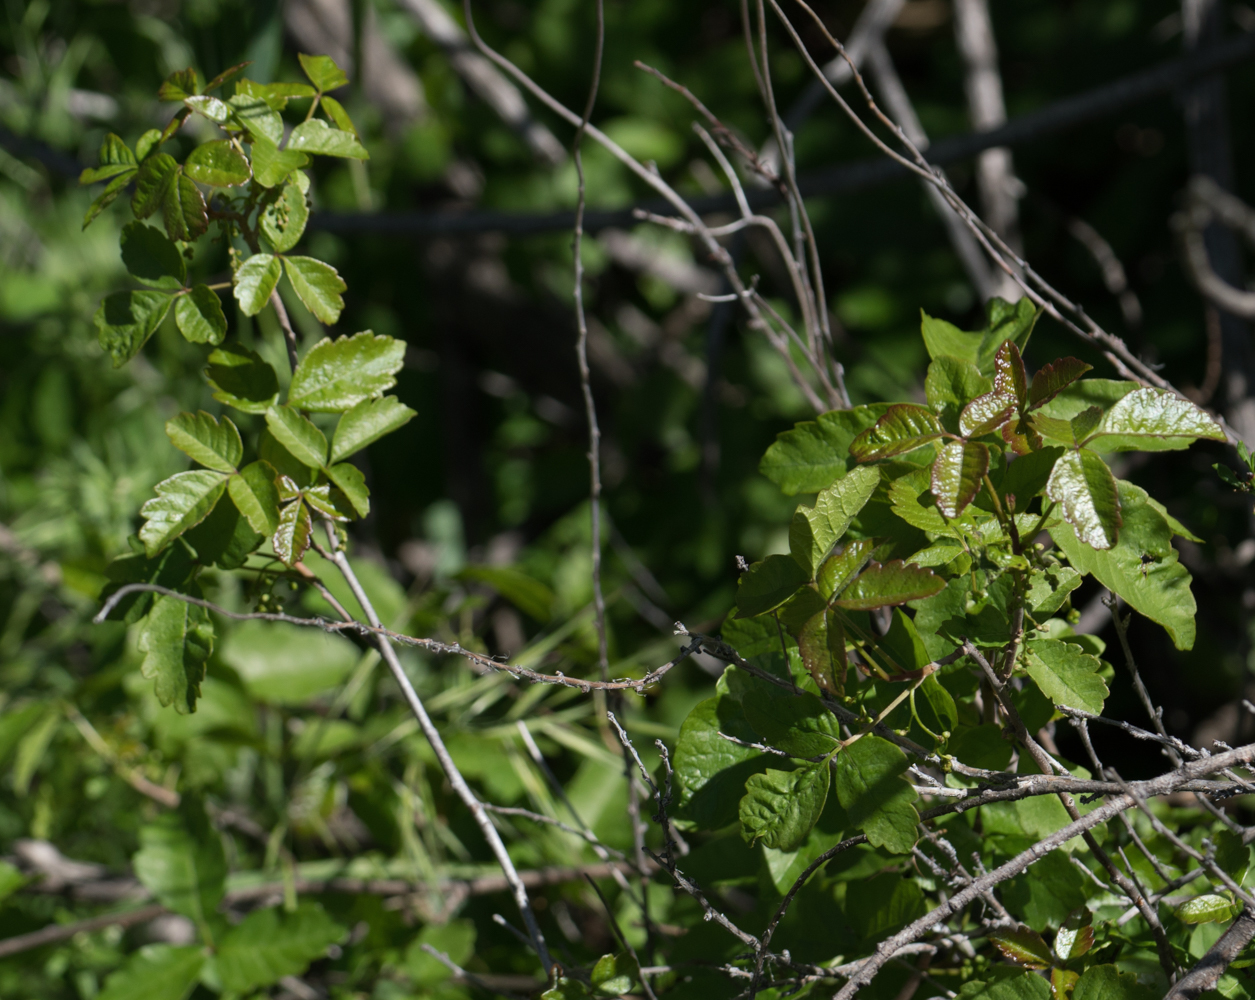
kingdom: Plantae
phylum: Tracheophyta
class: Magnoliopsida
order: Sapindales
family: Anacardiaceae
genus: Toxicodendron
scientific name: Toxicodendron diversilobum
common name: Pacific poison-oak
